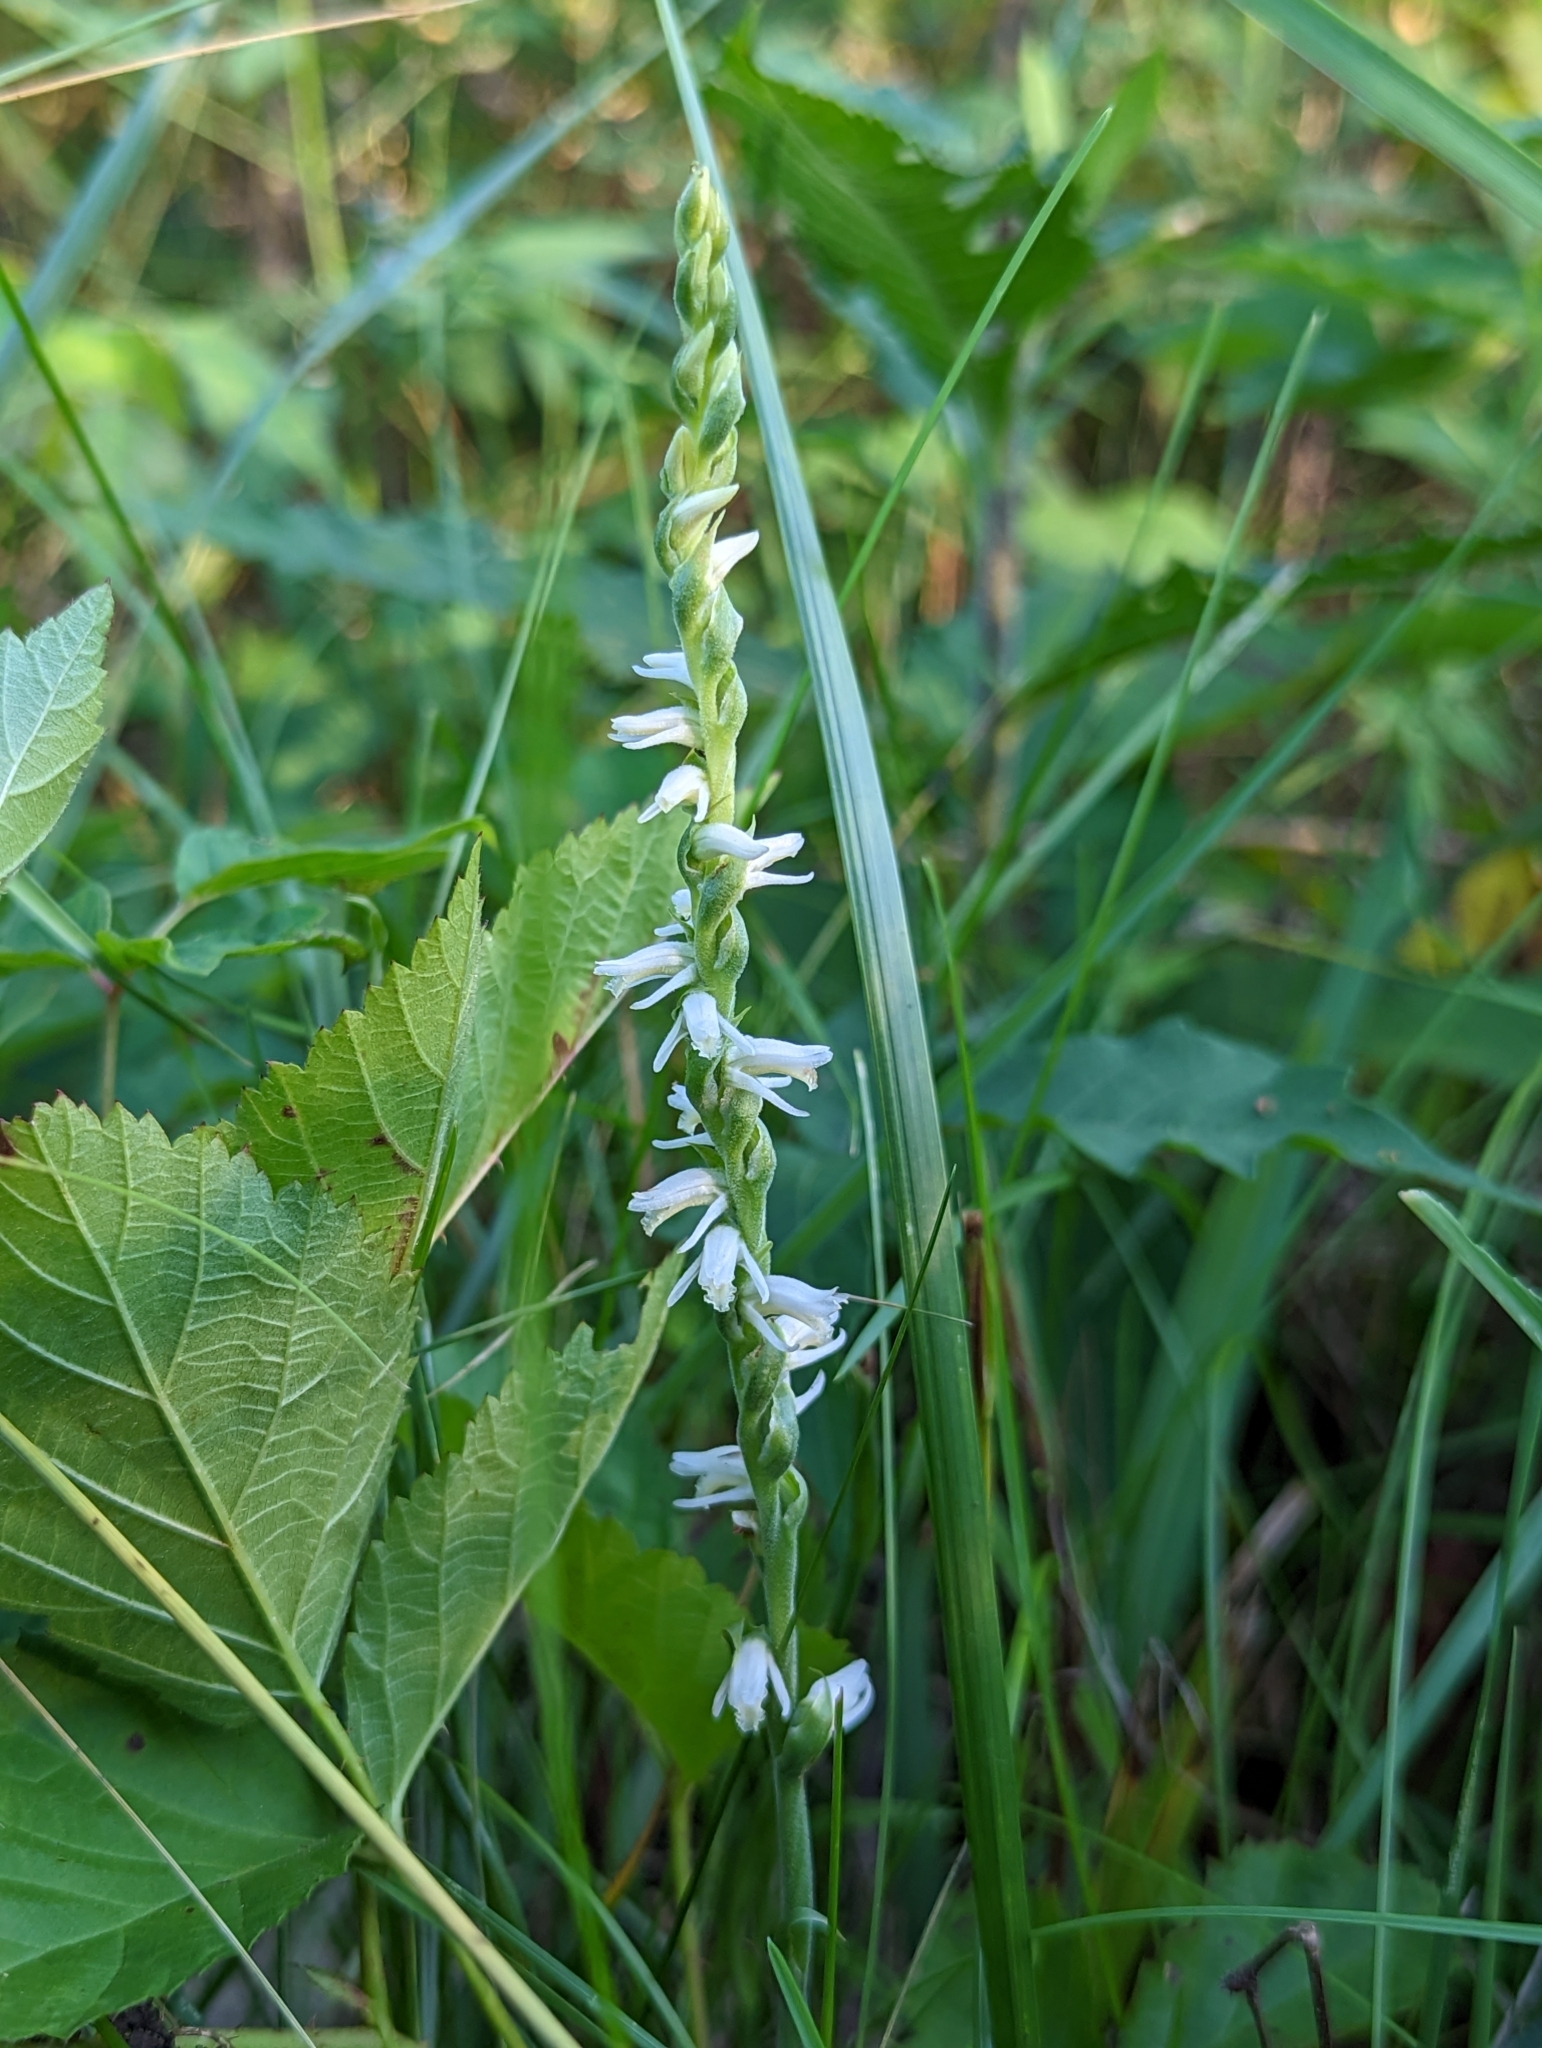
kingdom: Plantae
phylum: Tracheophyta
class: Liliopsida
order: Asparagales
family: Orchidaceae
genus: Spiranthes
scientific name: Spiranthes vernalis
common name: Spring ladies'-tresses
